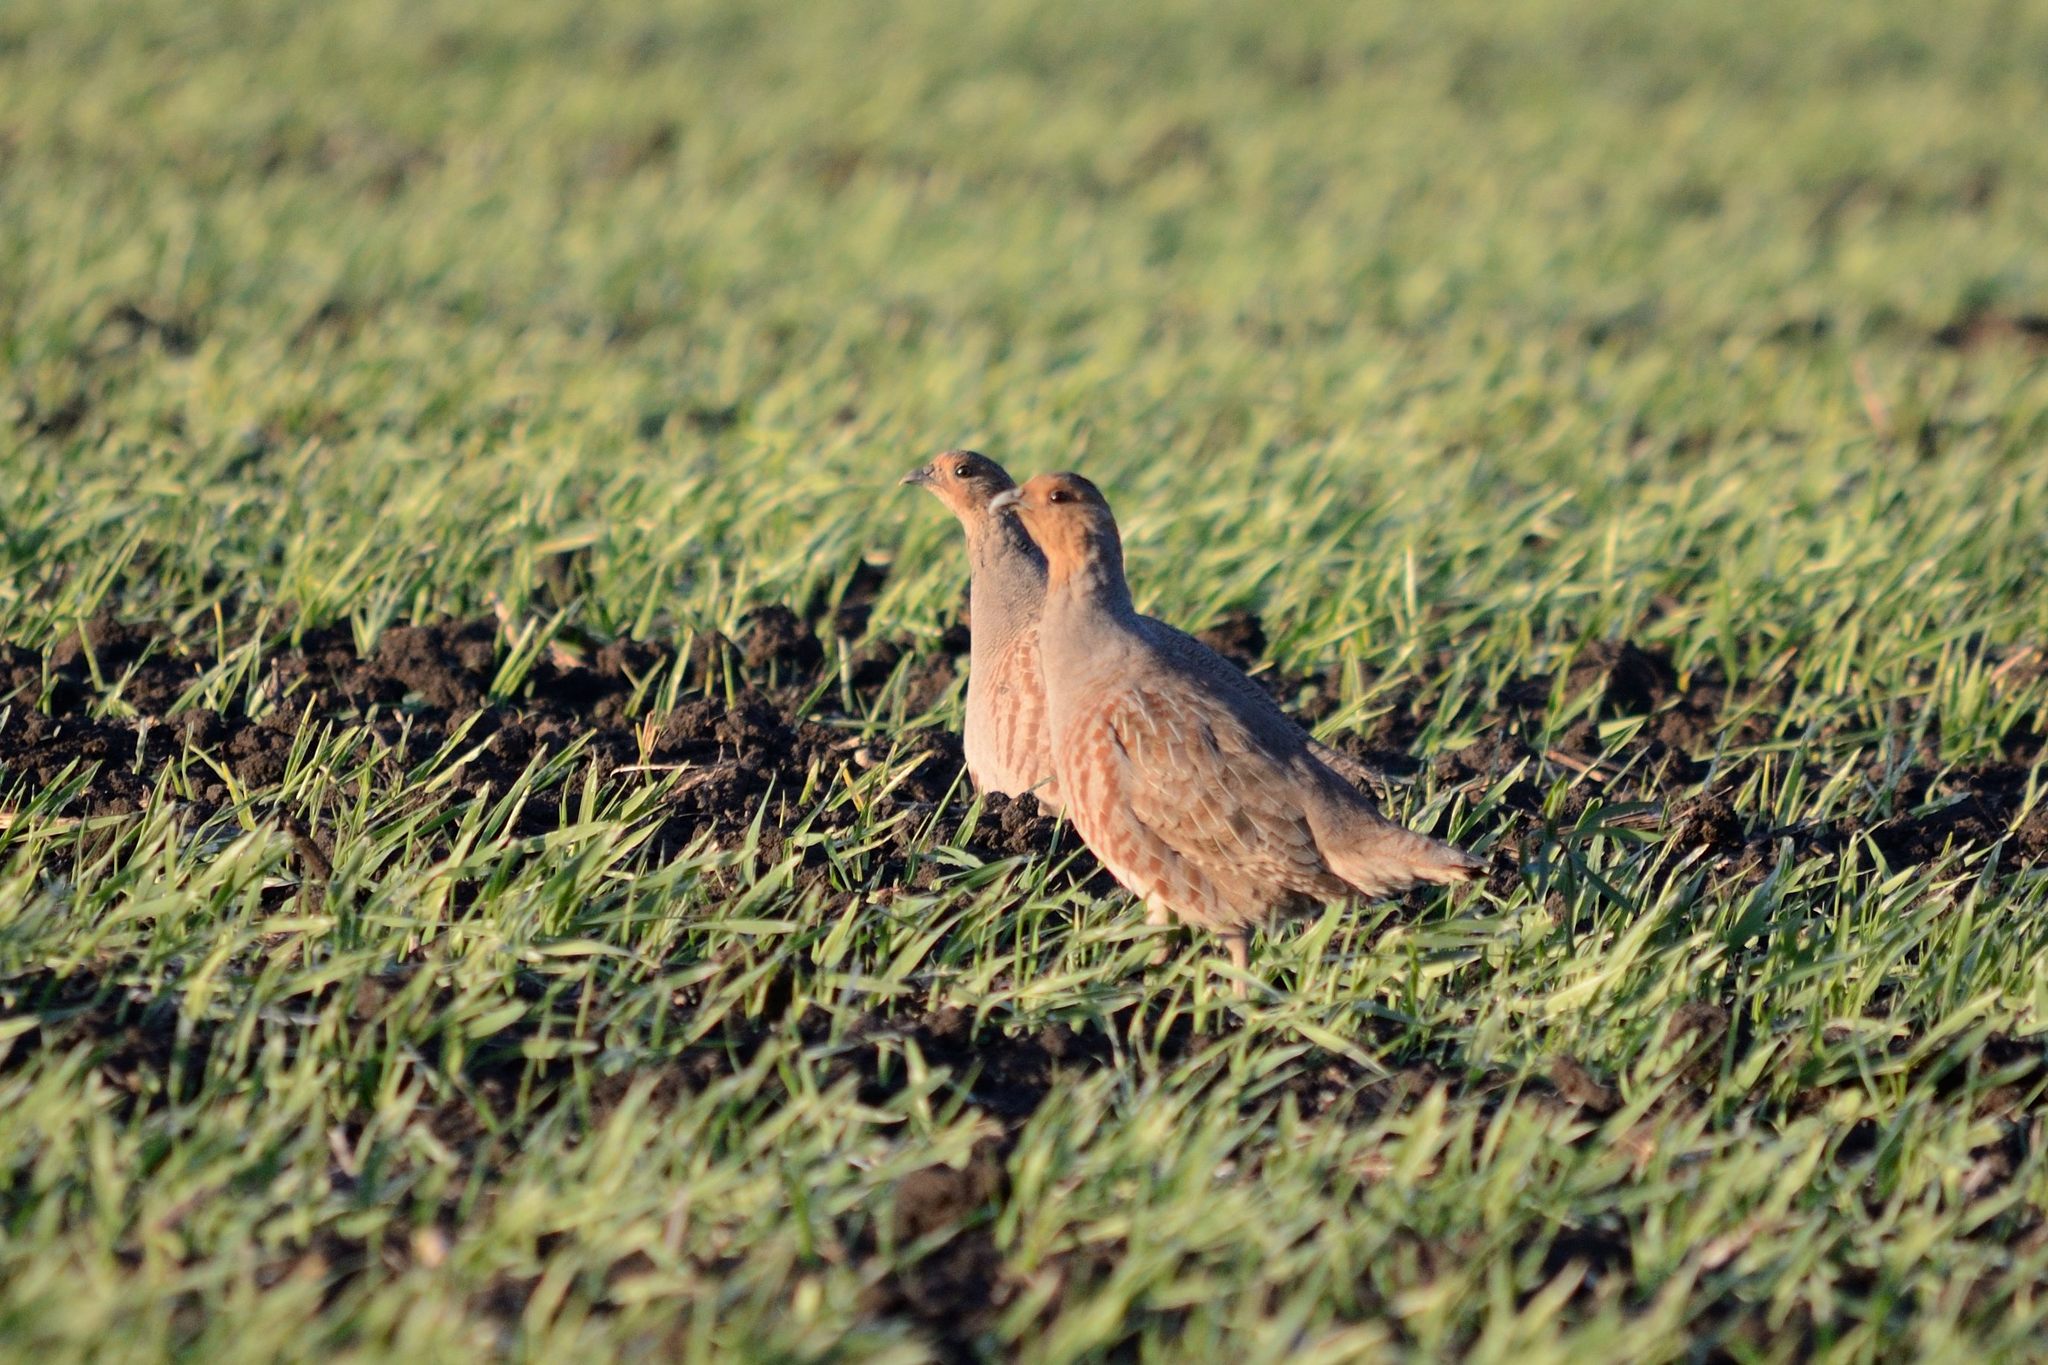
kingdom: Animalia
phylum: Chordata
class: Aves
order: Galliformes
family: Phasianidae
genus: Perdix
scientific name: Perdix perdix
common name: Grey partridge
